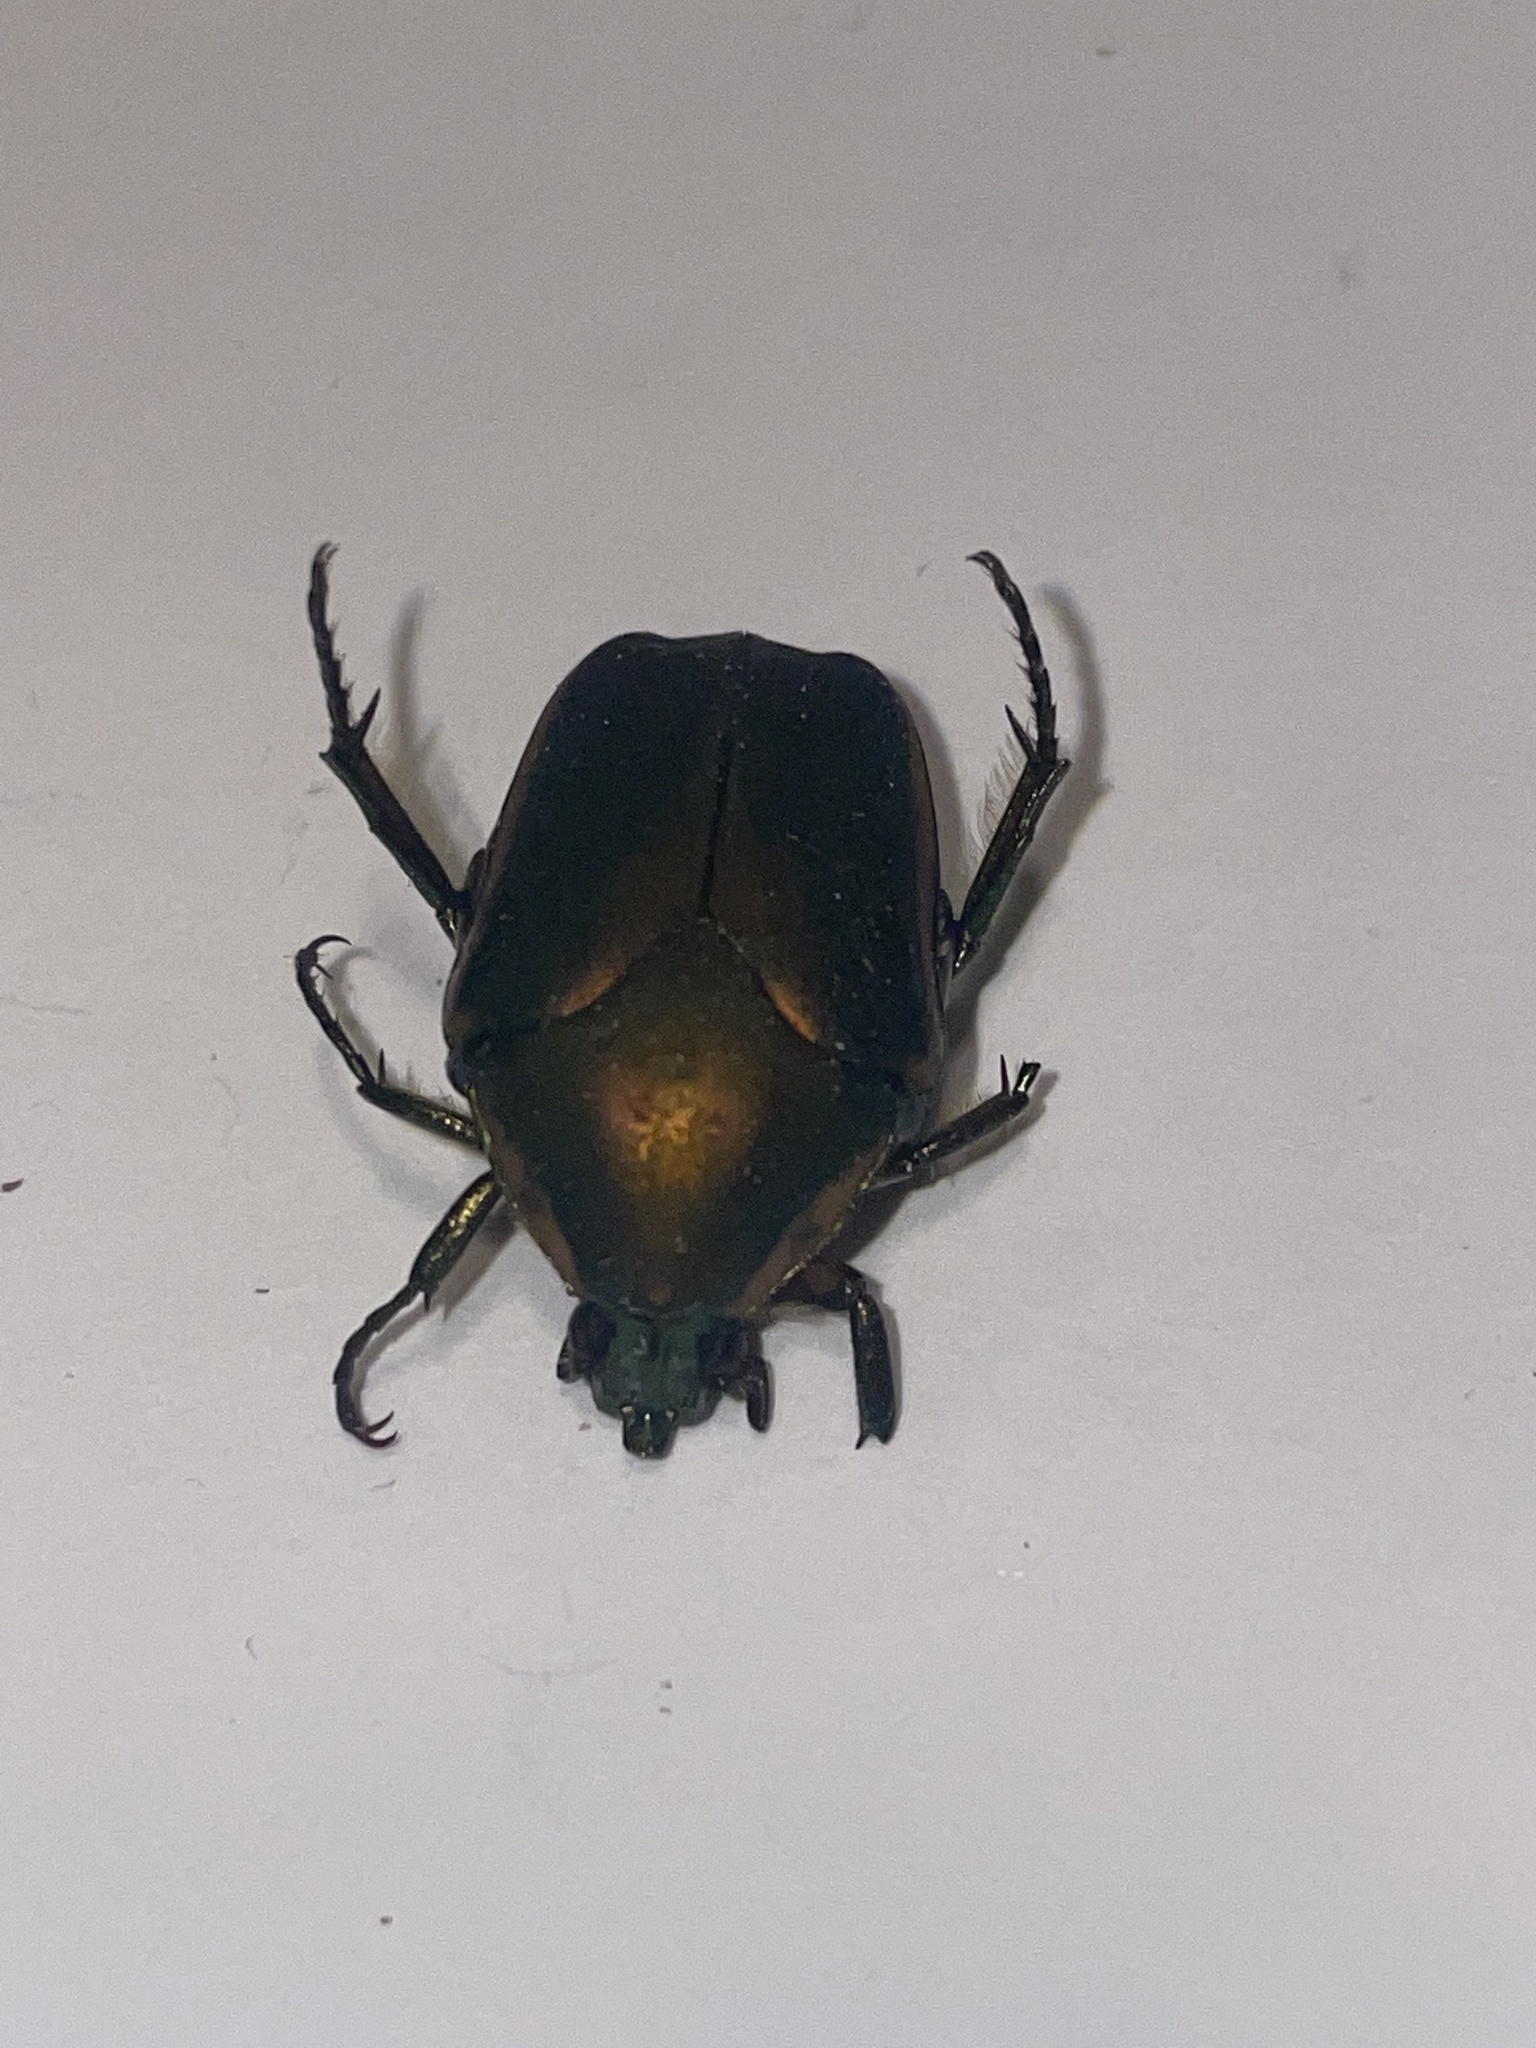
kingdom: Animalia
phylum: Arthropoda
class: Insecta
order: Coleoptera
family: Scarabaeidae
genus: Cotinis
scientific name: Cotinis nitida
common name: Common green june beetle
